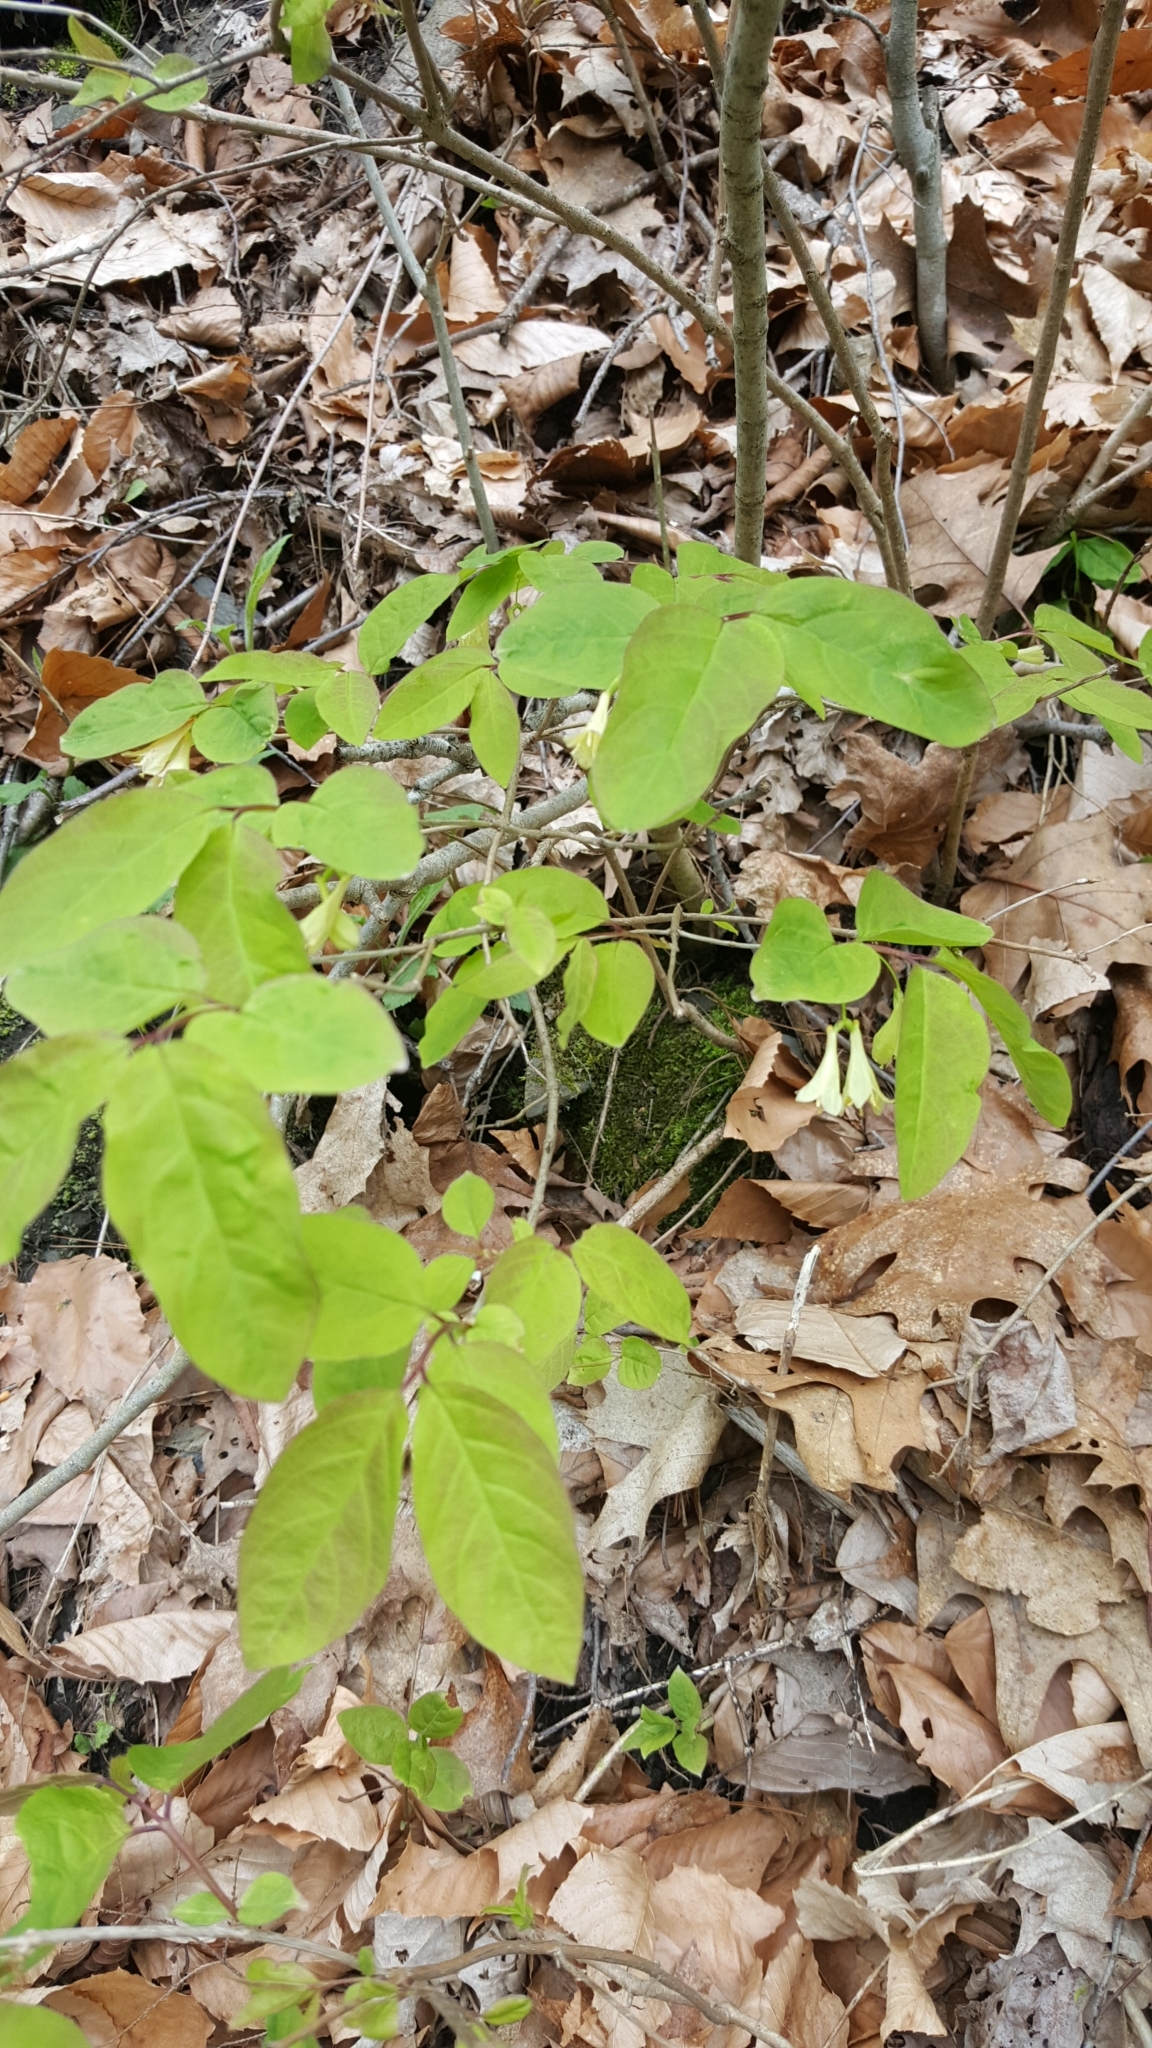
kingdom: Plantae
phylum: Tracheophyta
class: Magnoliopsida
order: Dipsacales
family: Caprifoliaceae
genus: Lonicera
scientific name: Lonicera canadensis
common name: American fly-honeysuckle
